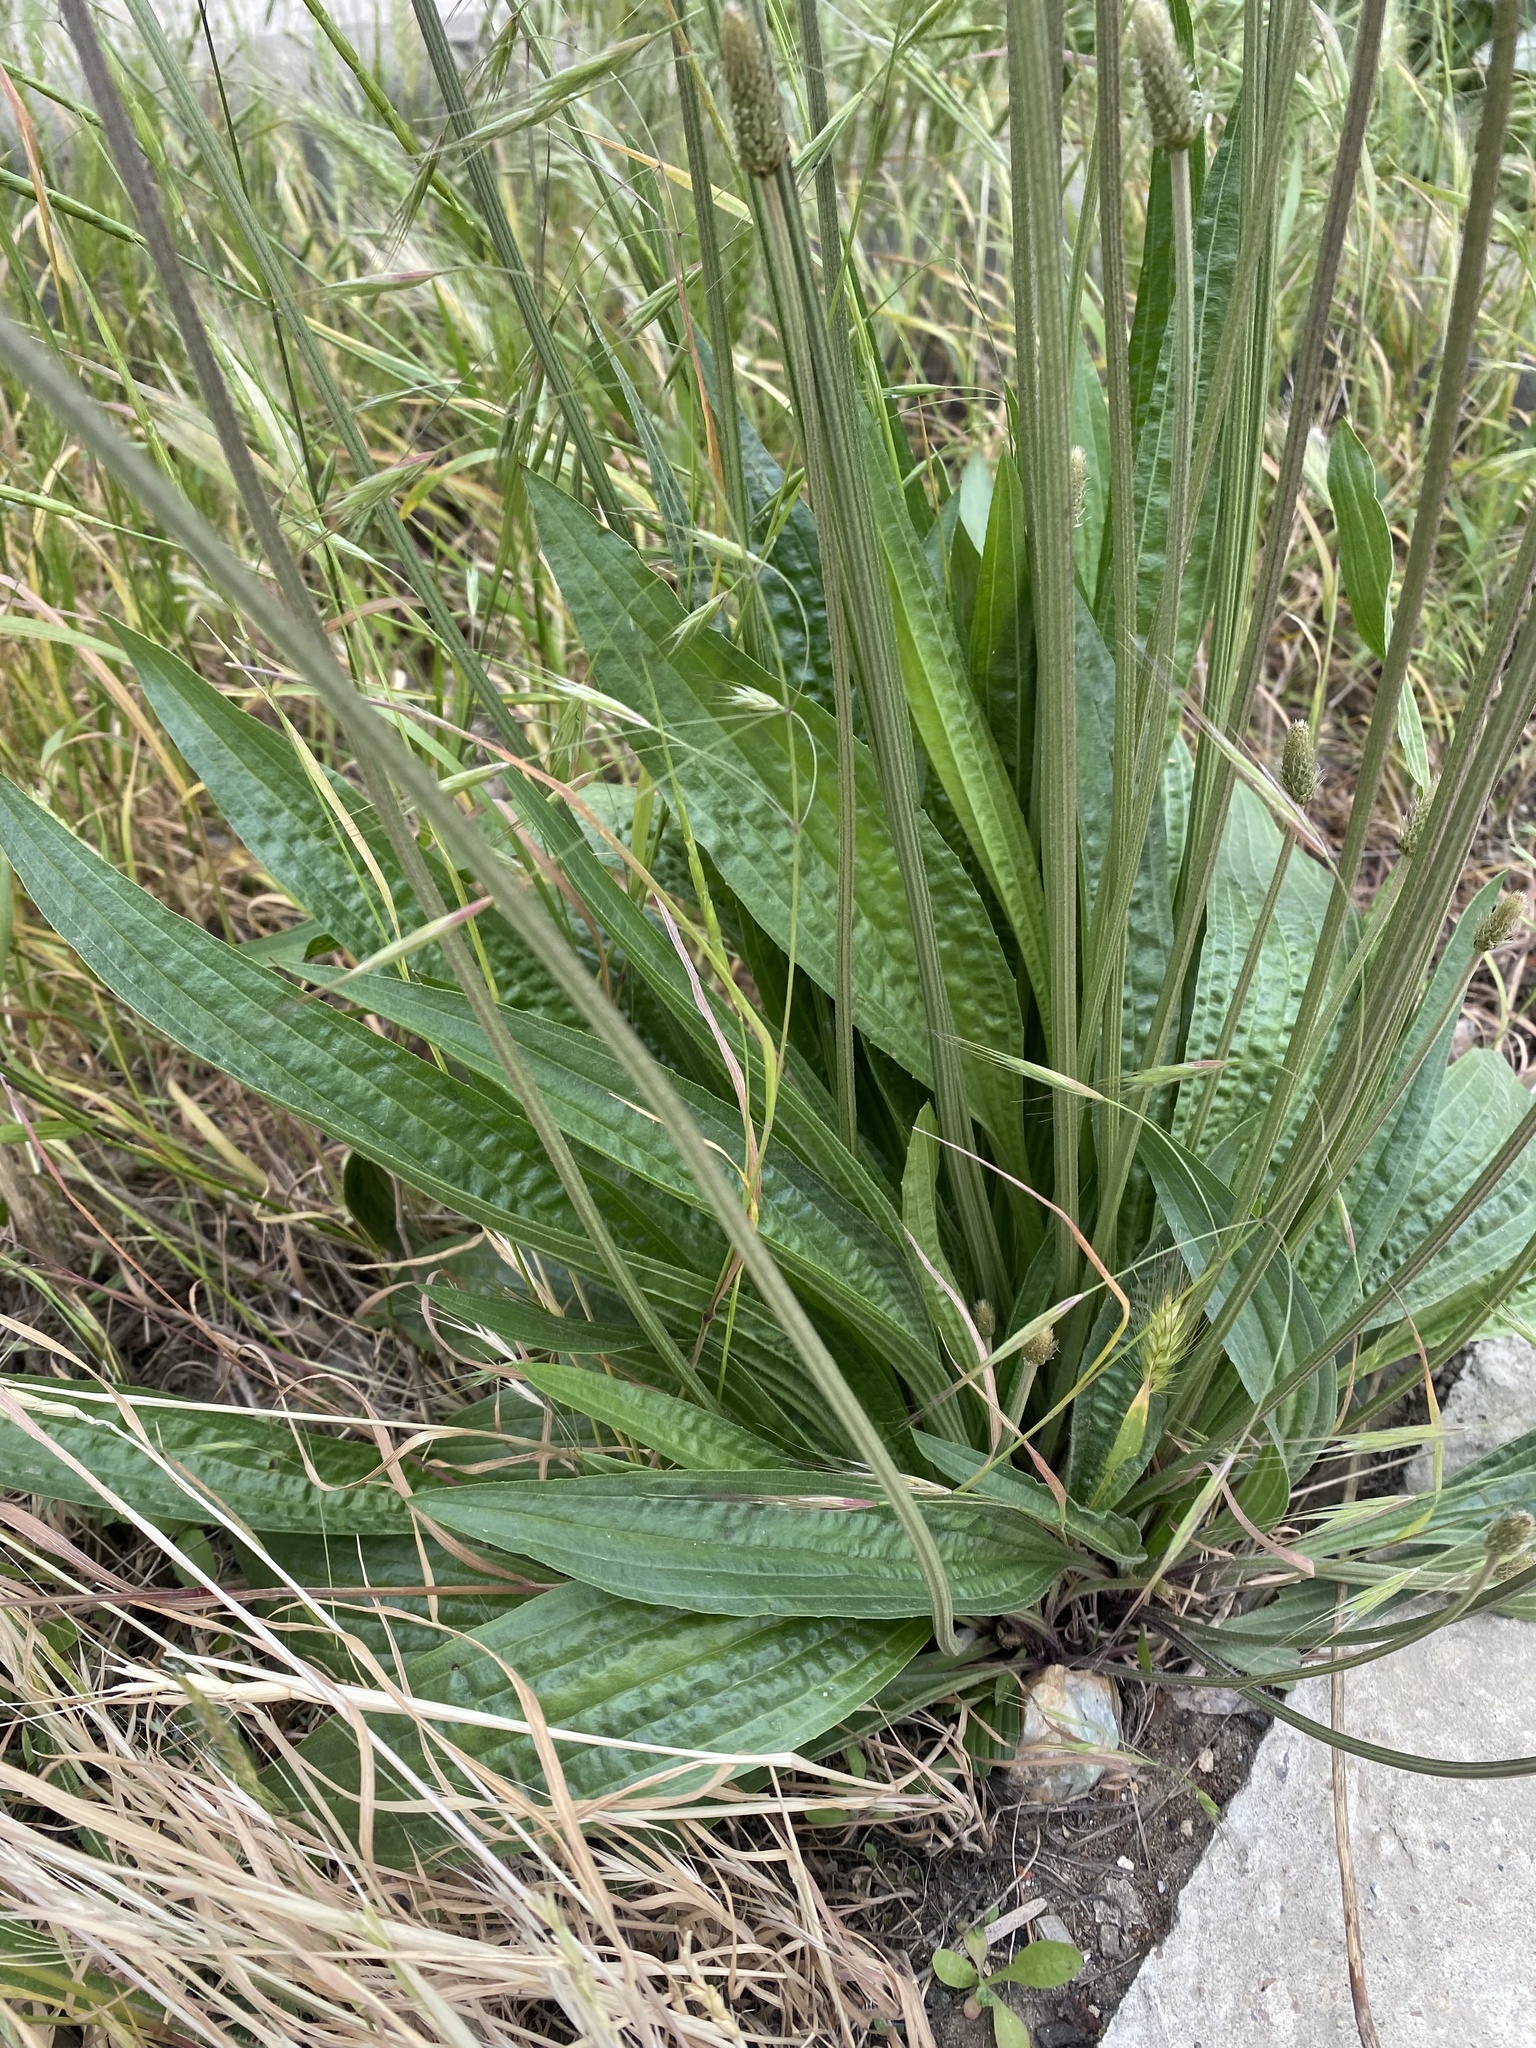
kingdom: Plantae
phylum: Tracheophyta
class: Magnoliopsida
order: Lamiales
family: Plantaginaceae
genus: Plantago
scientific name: Plantago lanceolata
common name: Ribwort plantain
